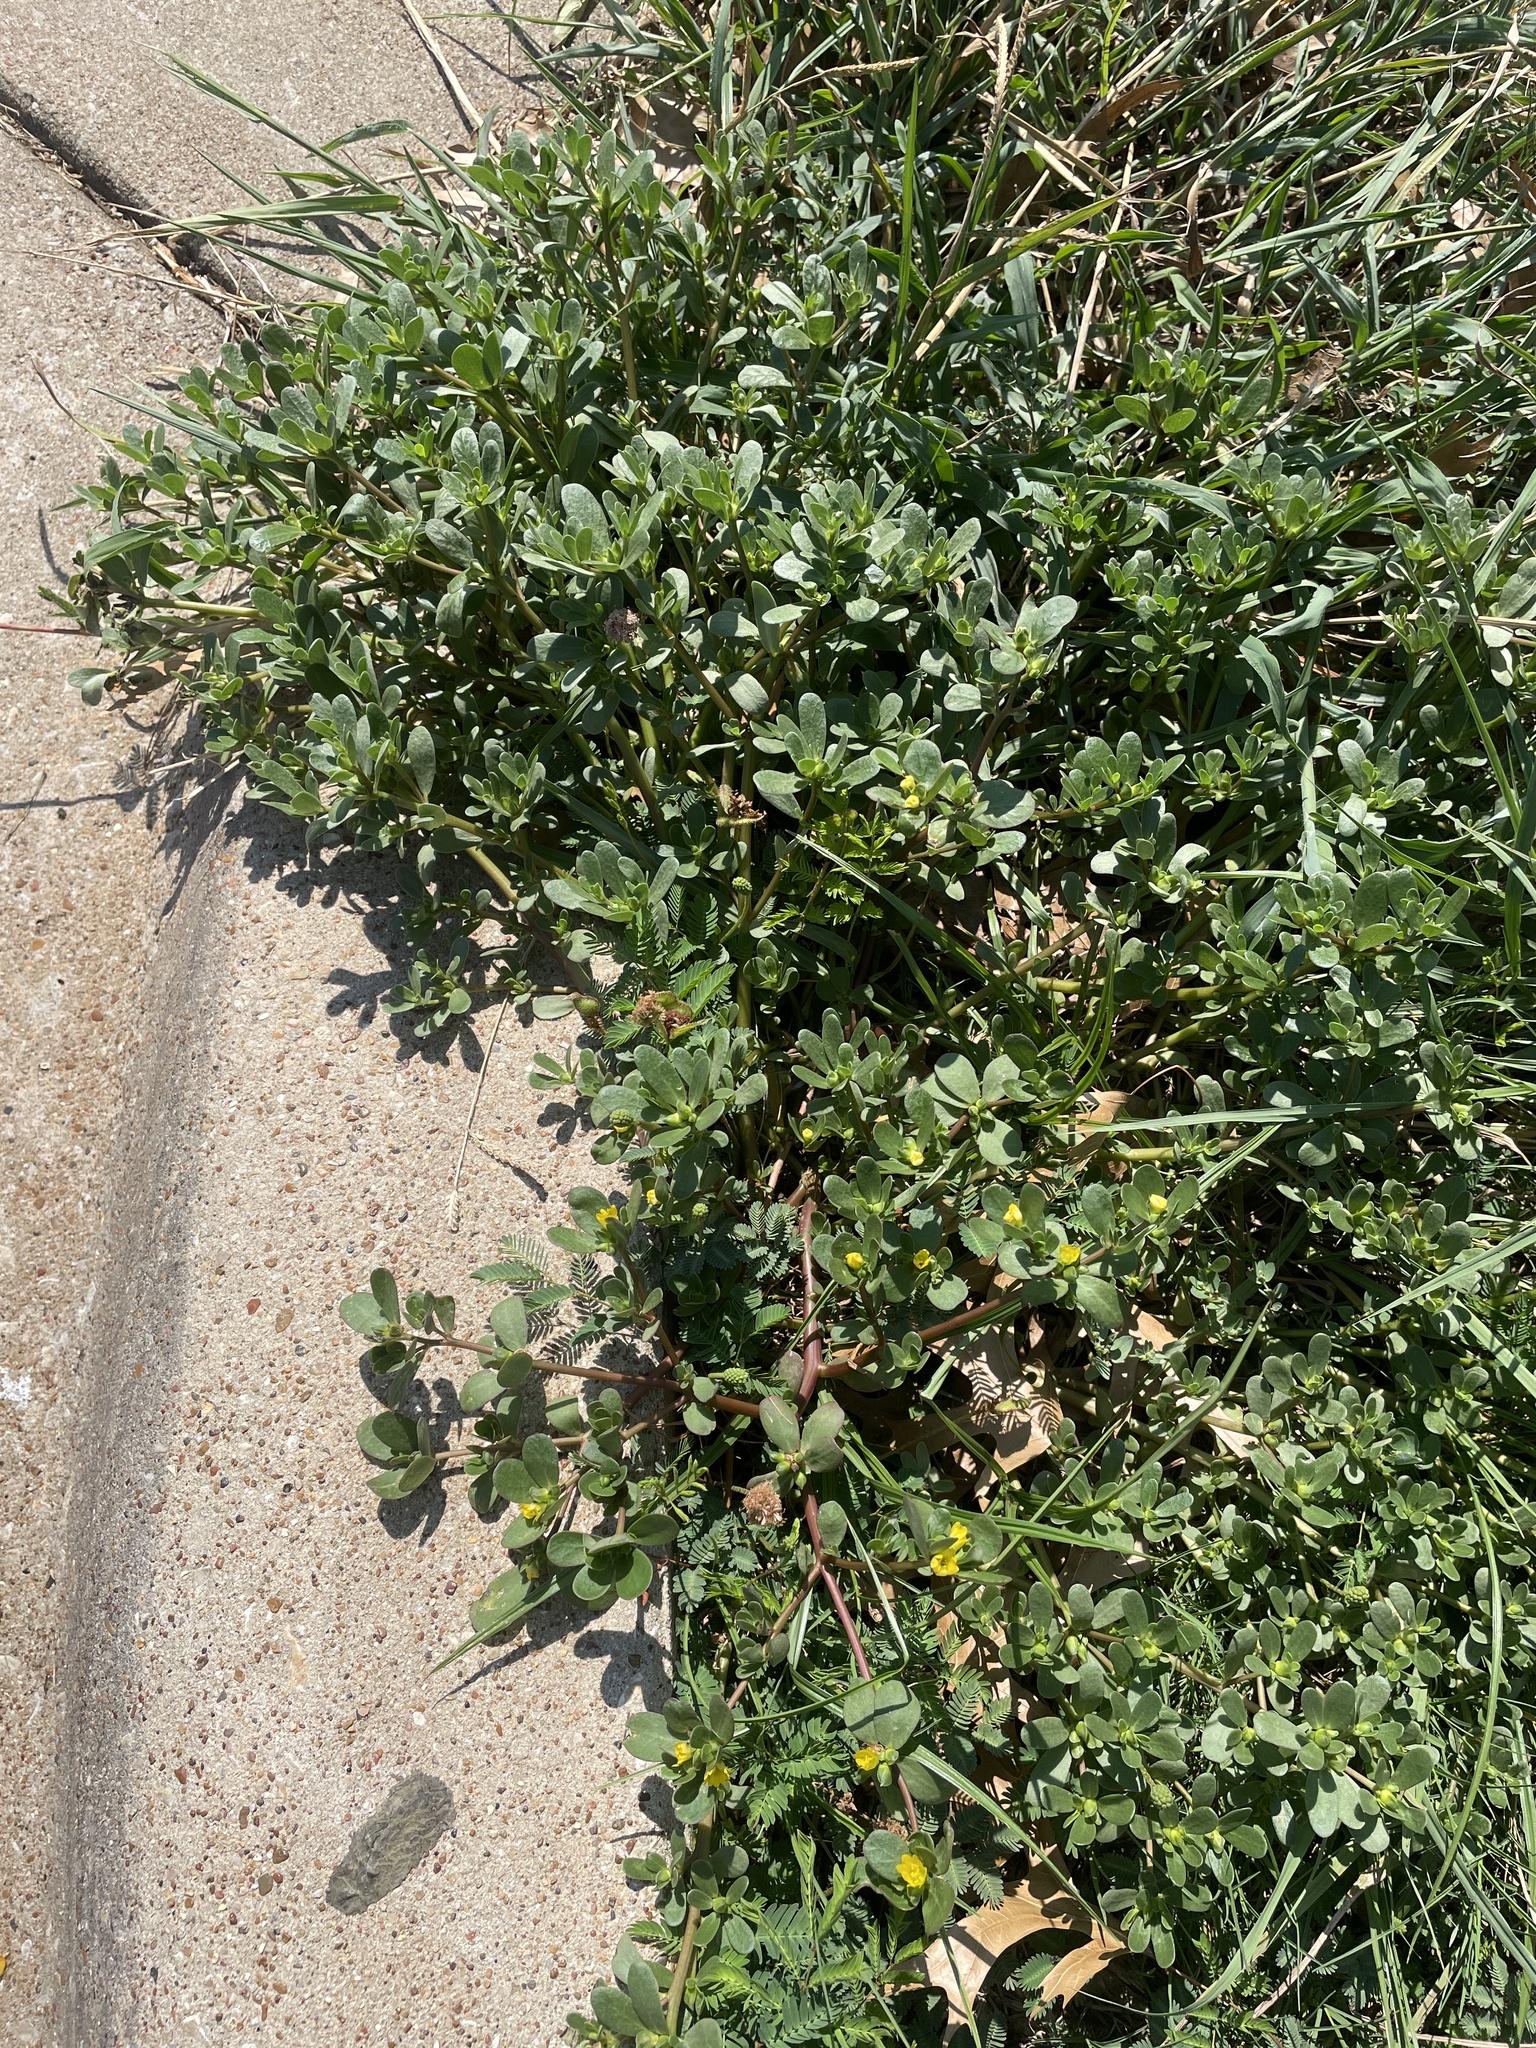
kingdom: Plantae
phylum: Tracheophyta
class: Magnoliopsida
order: Caryophyllales
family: Portulacaceae
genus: Portulaca
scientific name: Portulaca oleracea
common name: Common purslane
